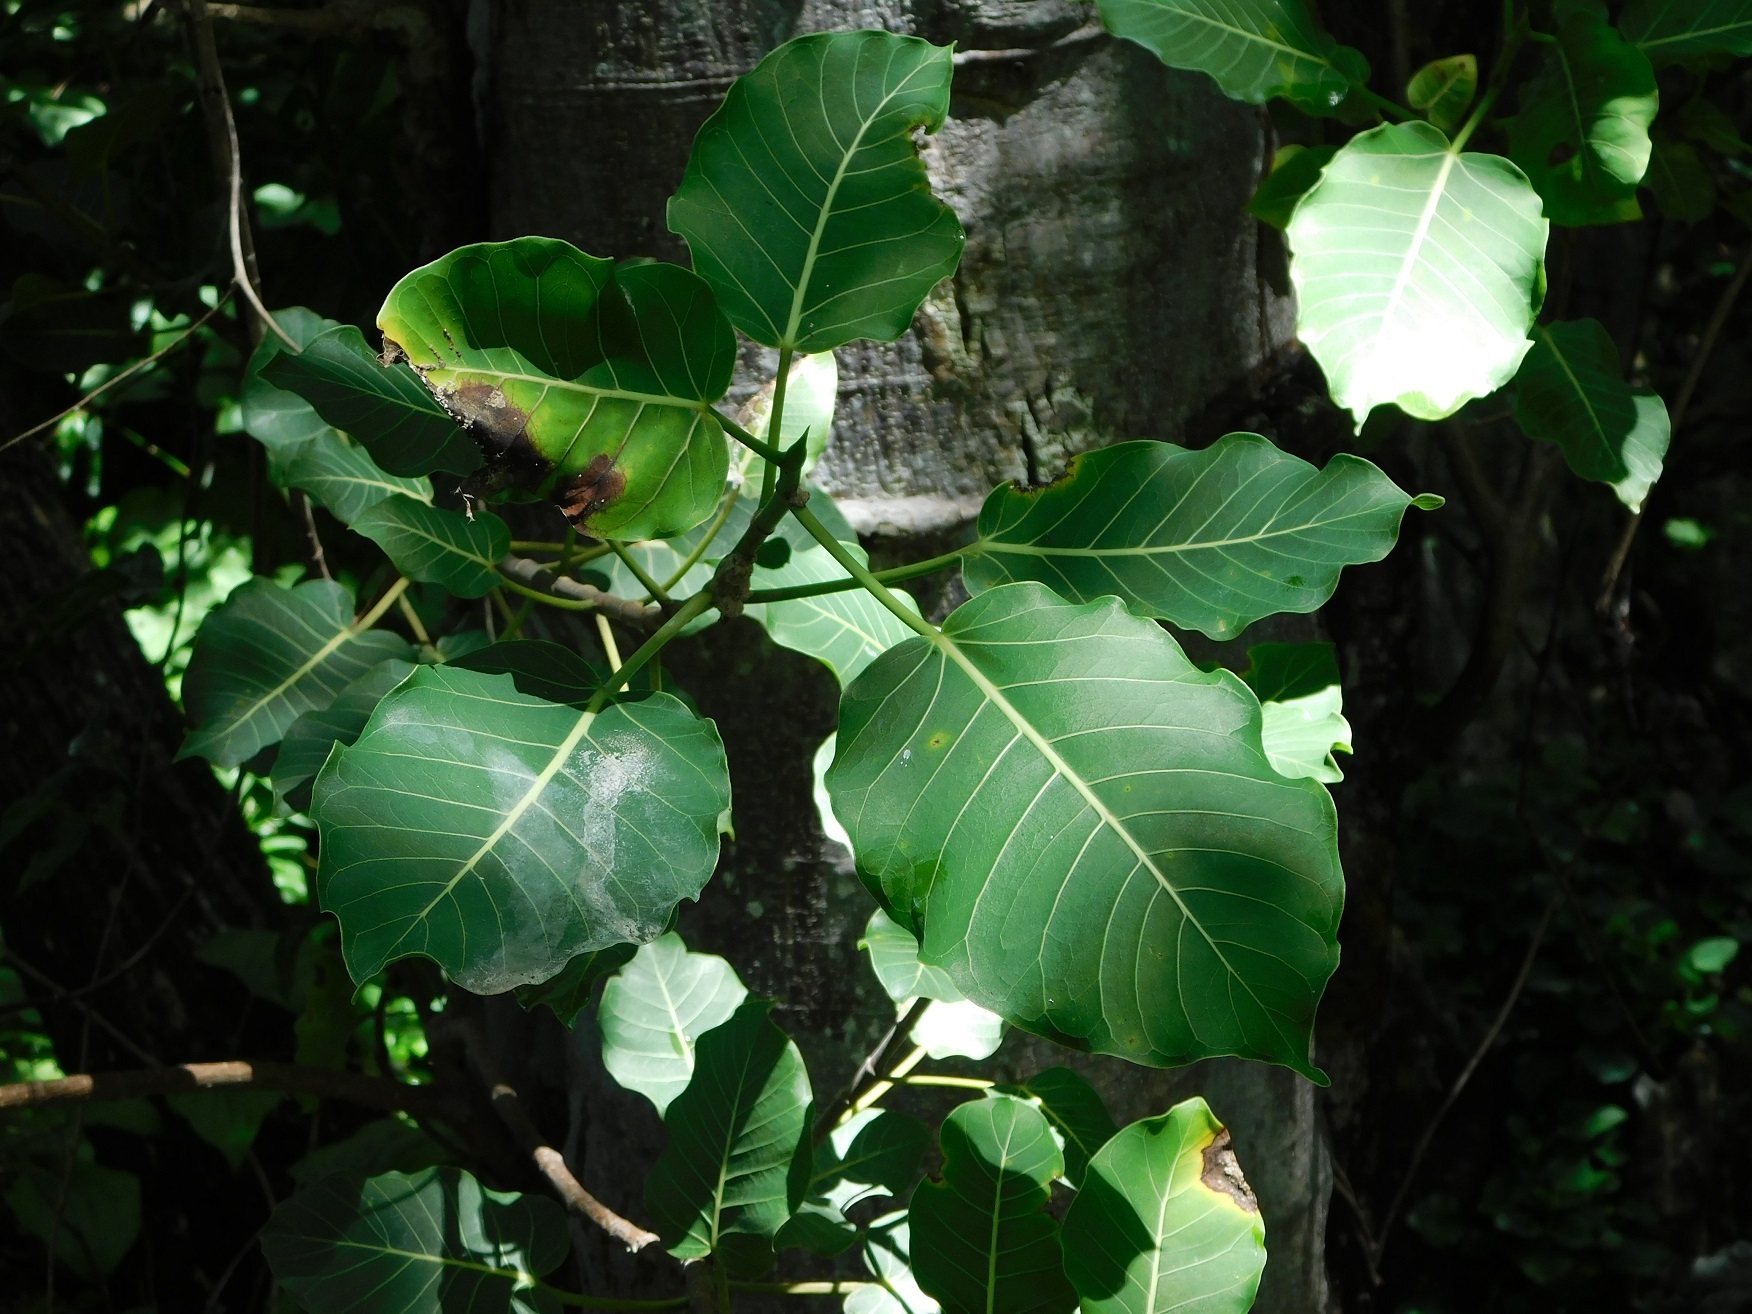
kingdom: Plantae
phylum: Tracheophyta
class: Magnoliopsida
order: Rosales
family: Moraceae
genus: Ficus
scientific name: Ficus aurea
